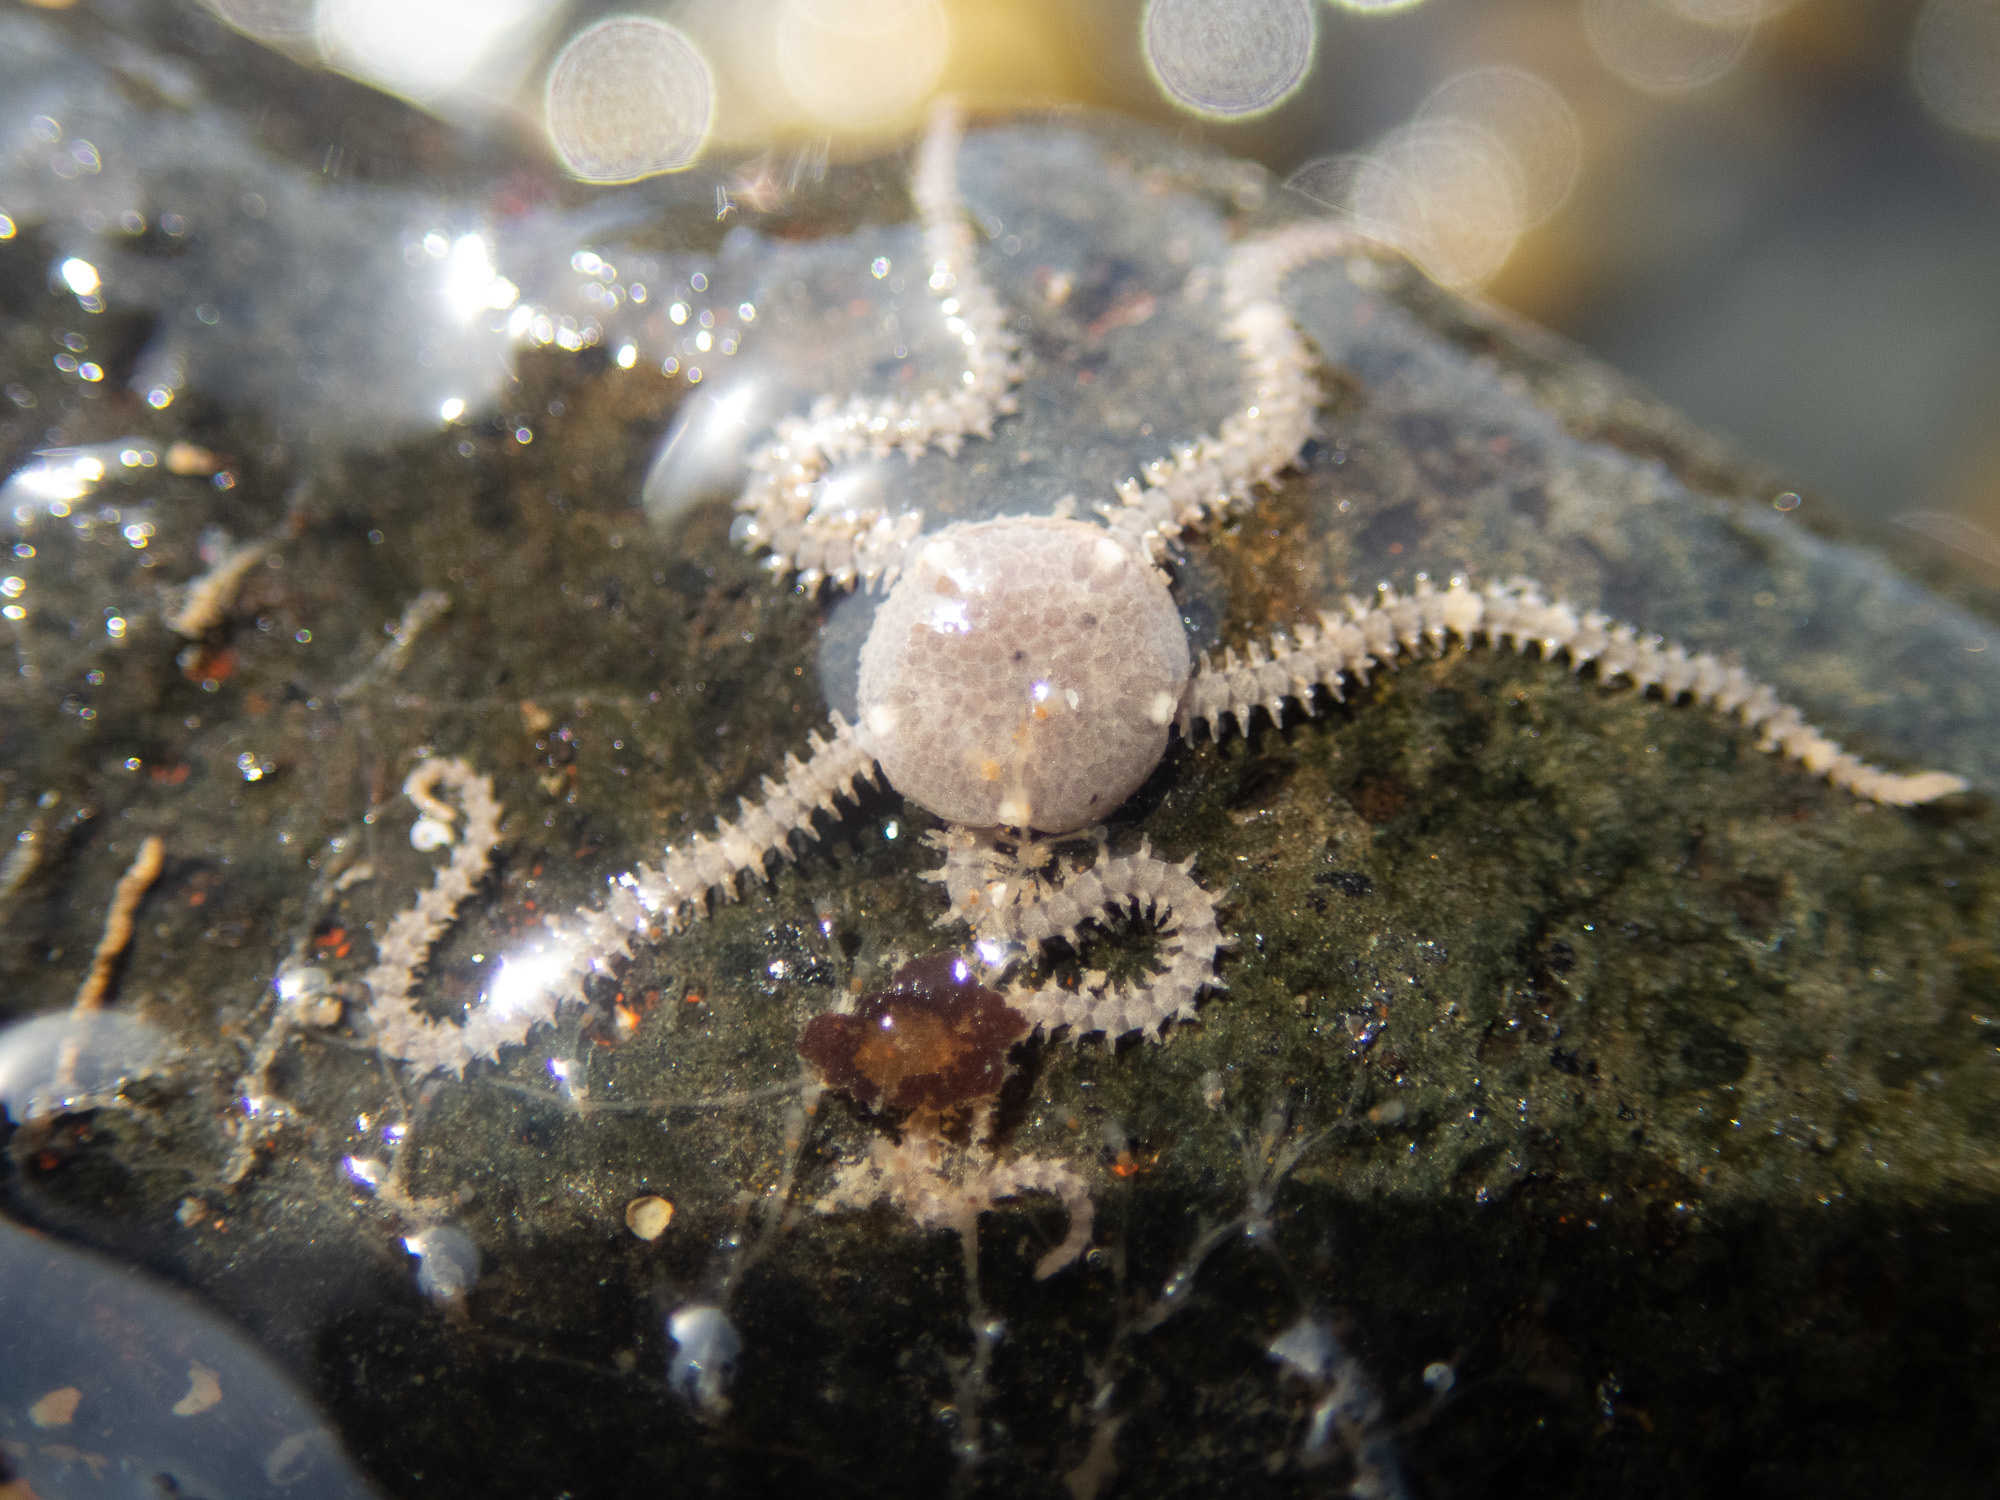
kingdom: Animalia
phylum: Echinodermata
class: Ophiuroidea
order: Amphilepidida
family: Amphiuridae
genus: Amphipholis
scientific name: Amphipholis squamata
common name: Brooding snake star
